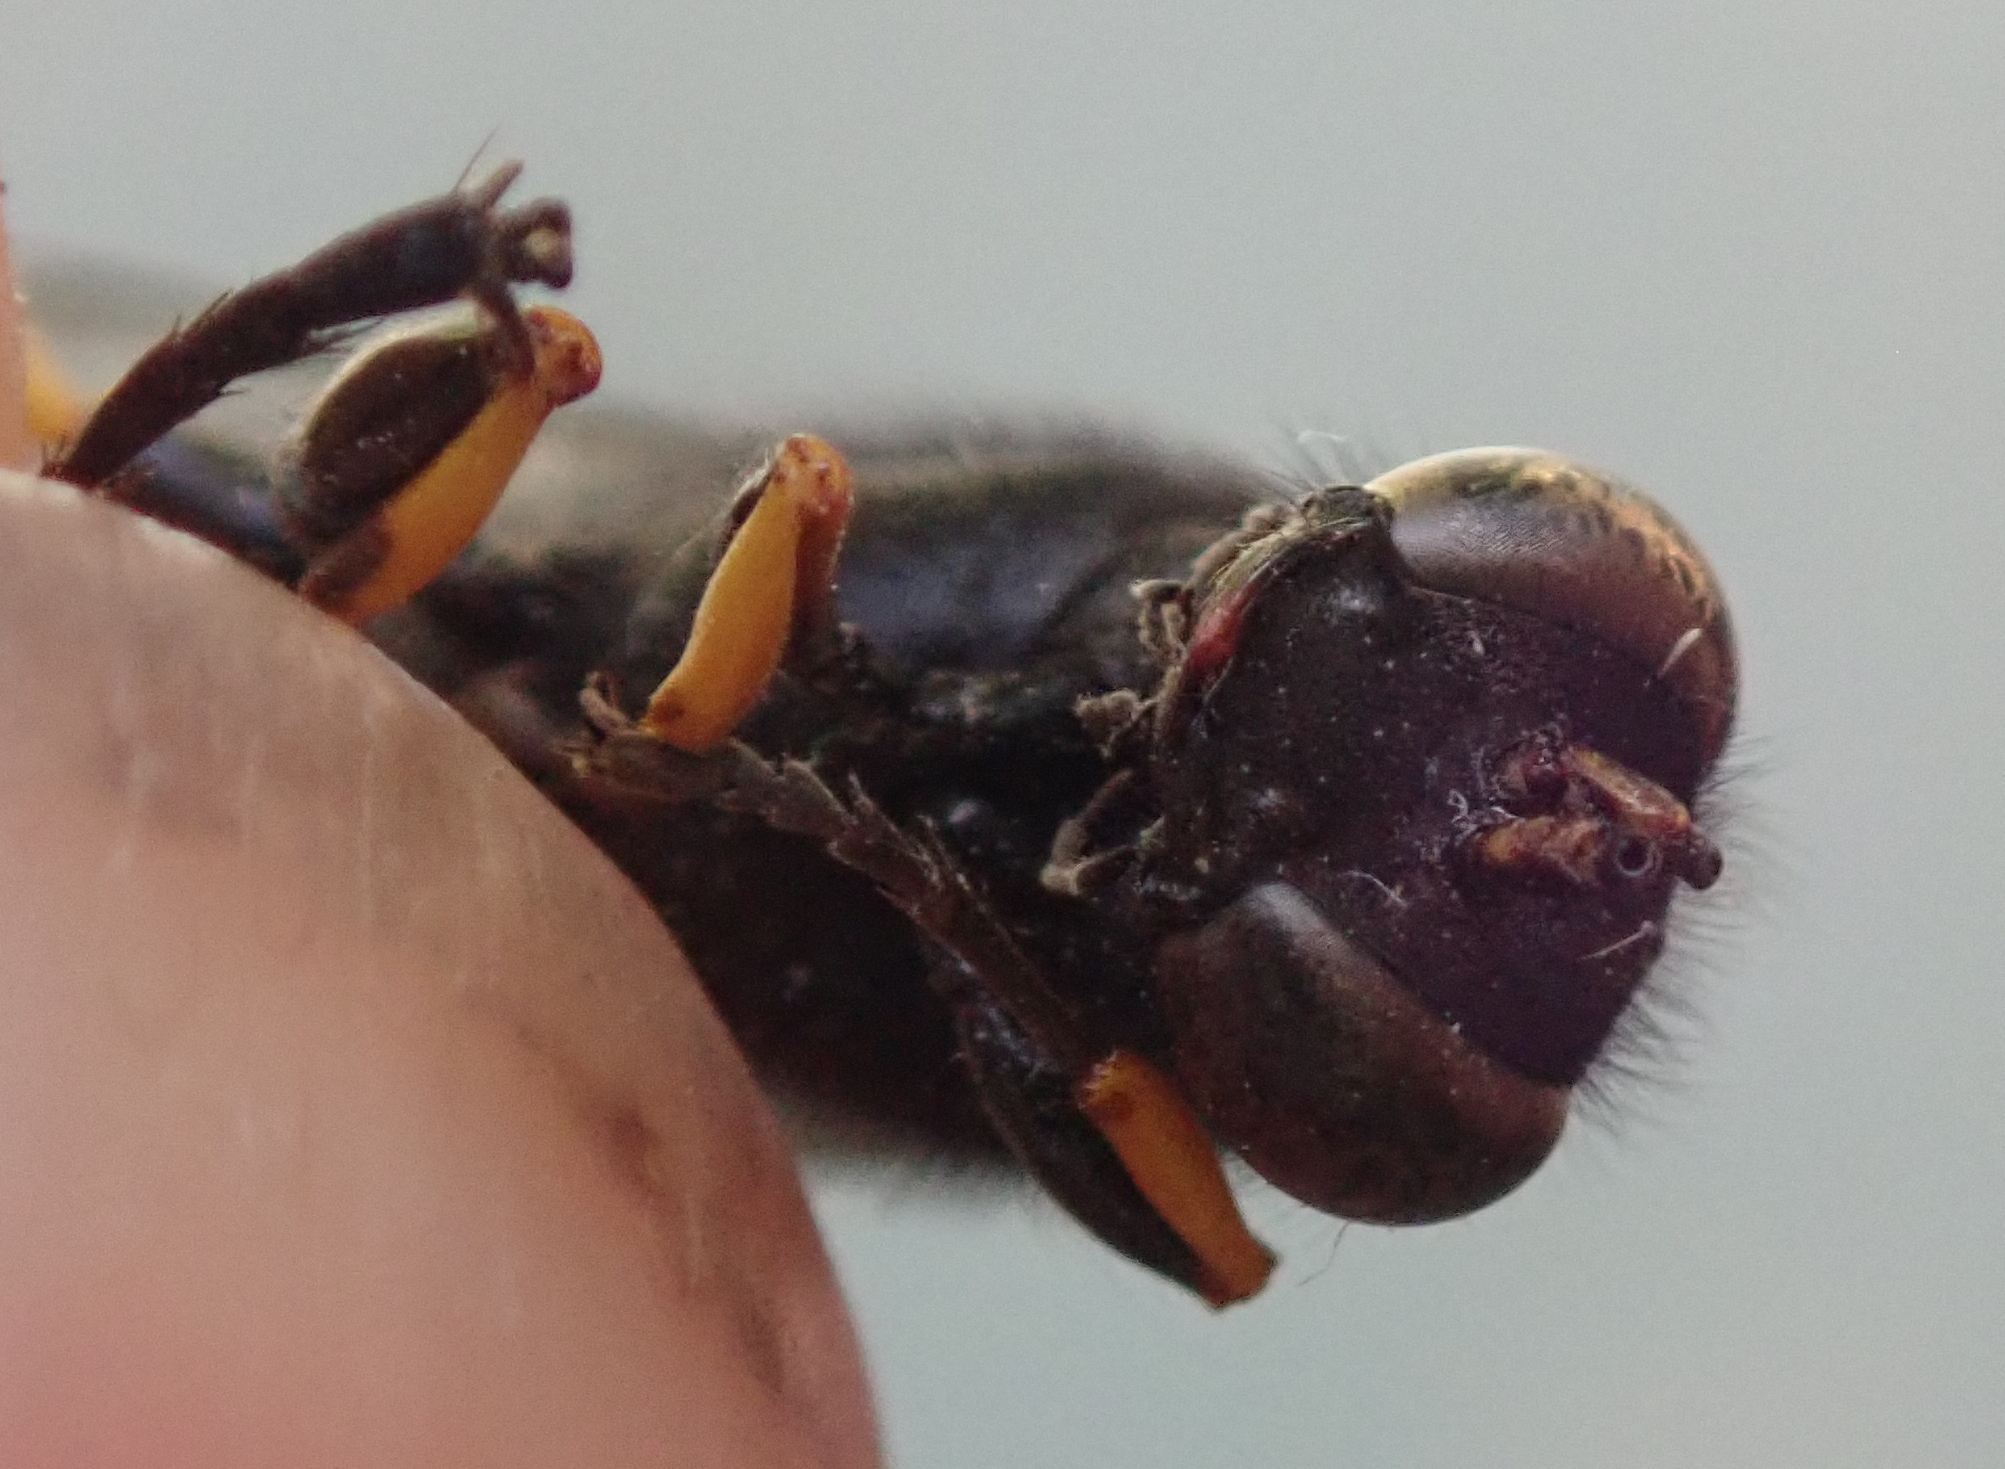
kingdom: Animalia
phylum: Arthropoda
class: Insecta
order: Hymenoptera
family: Sphecidae
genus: Sceliphron
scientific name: Sceliphron spirifex
